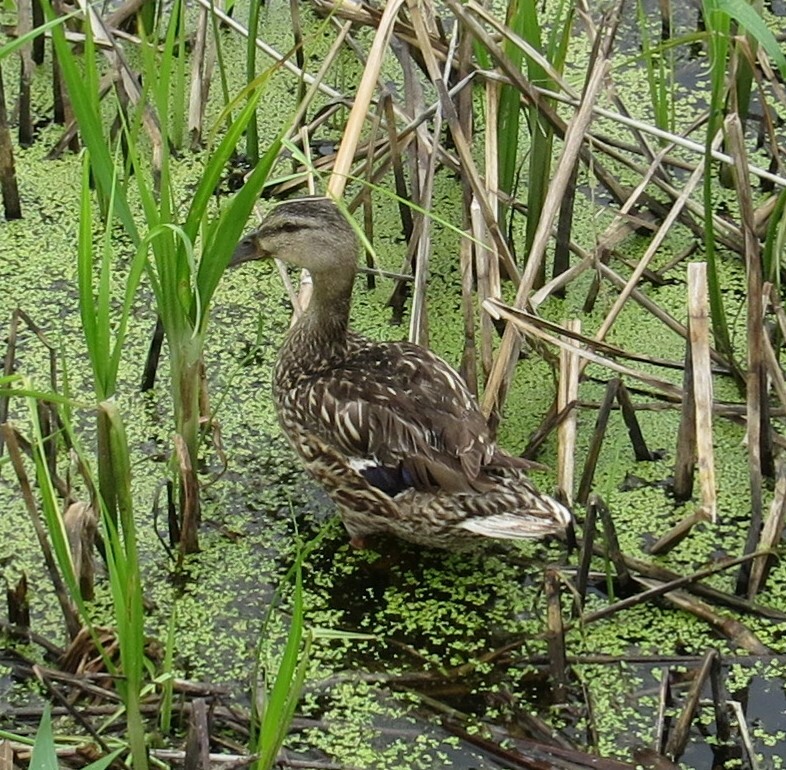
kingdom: Animalia
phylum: Chordata
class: Aves
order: Anseriformes
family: Anatidae
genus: Anas
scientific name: Anas platyrhynchos
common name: Mallard
